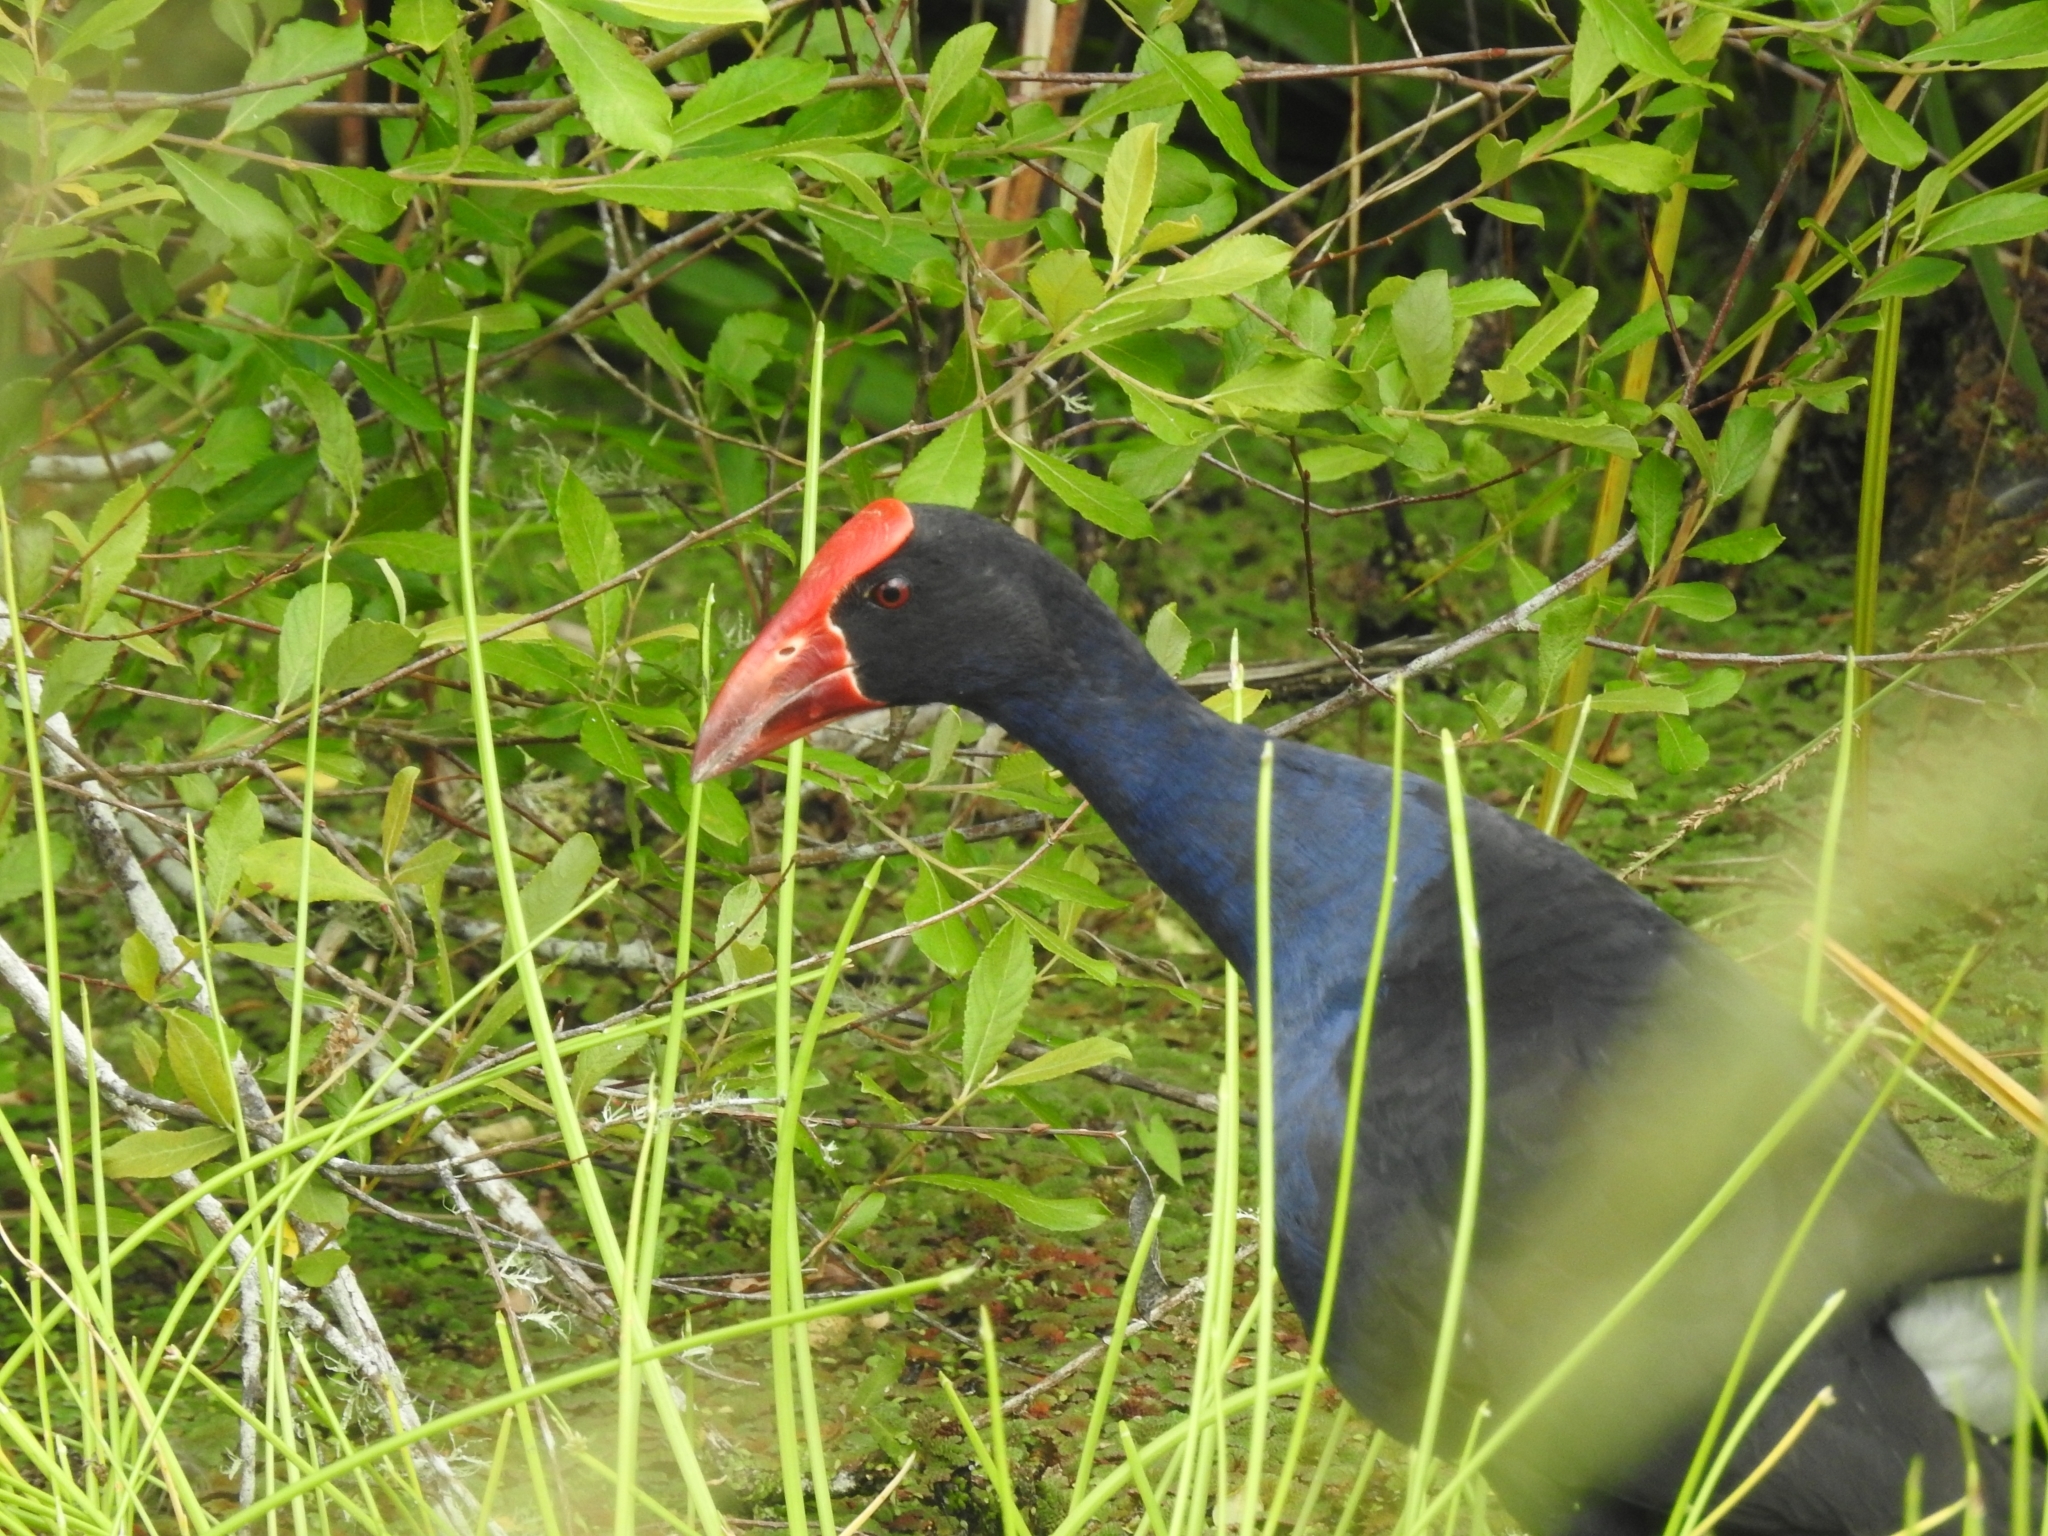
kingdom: Animalia
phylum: Chordata
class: Aves
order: Gruiformes
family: Rallidae
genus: Porphyrio
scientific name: Porphyrio melanotus
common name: Australasian swamphen
